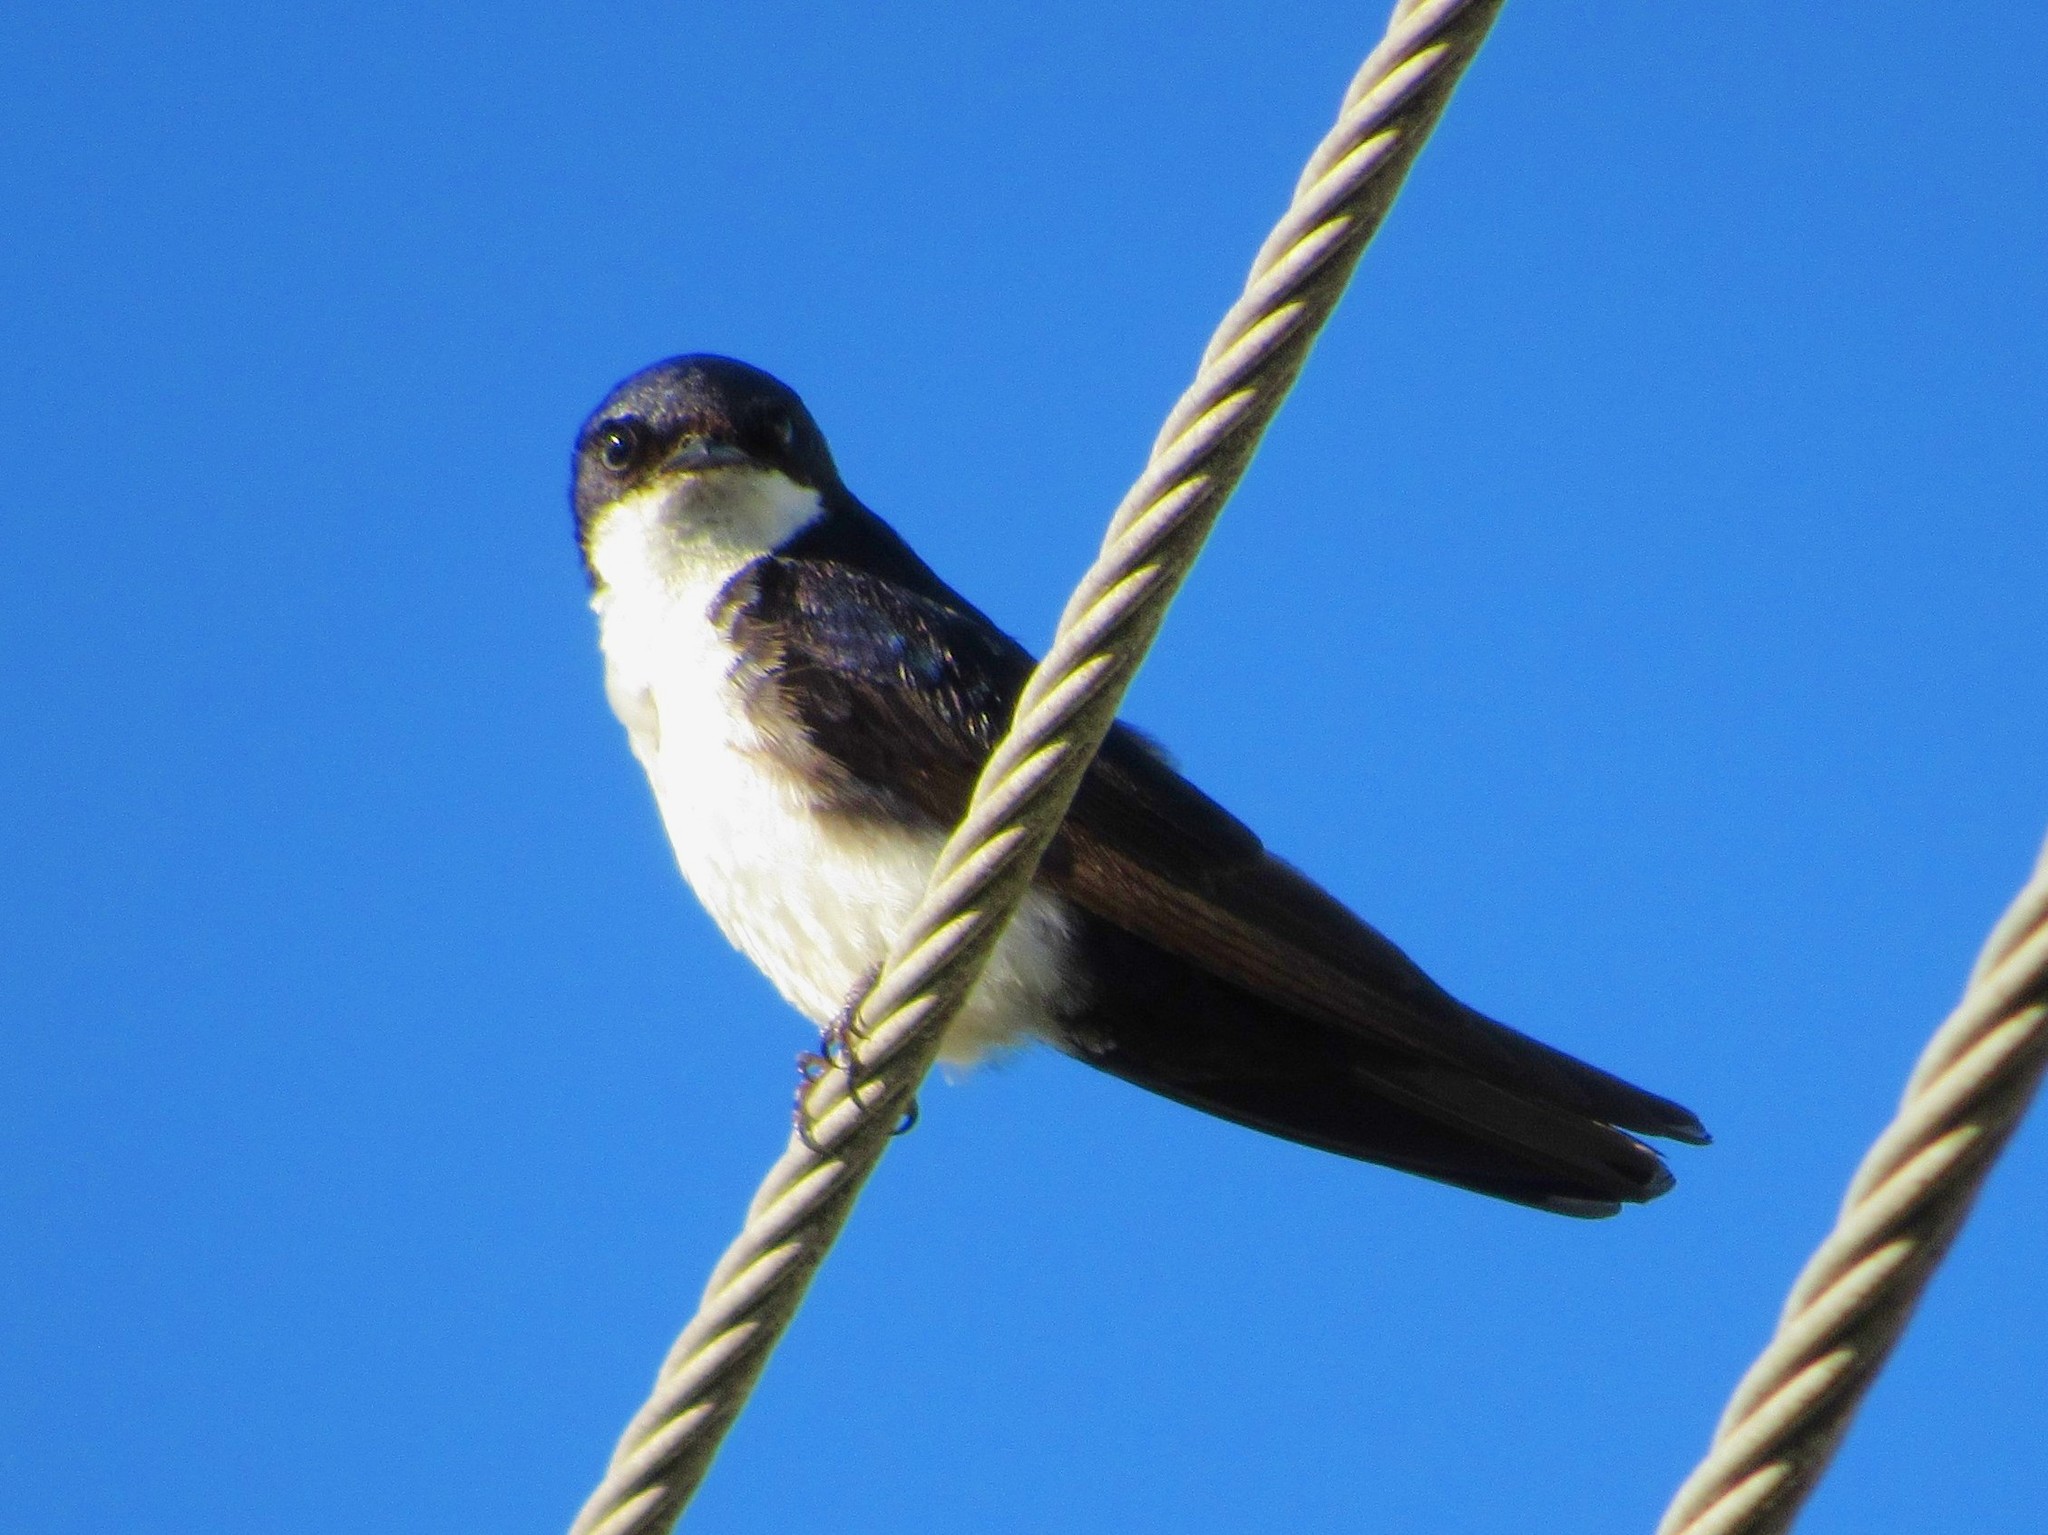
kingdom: Animalia
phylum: Chordata
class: Aves
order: Passeriformes
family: Hirundinidae
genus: Notiochelidon
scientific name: Notiochelidon cyanoleuca
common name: Blue-and-white swallow
